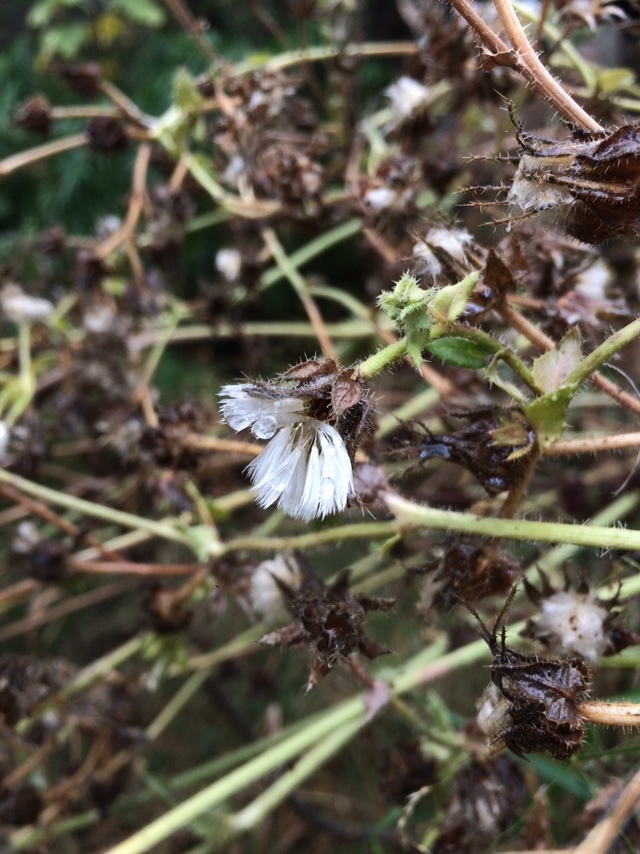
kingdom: Plantae
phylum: Tracheophyta
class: Magnoliopsida
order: Asterales
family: Asteraceae
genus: Helminthotheca
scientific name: Helminthotheca echioides
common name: Ox-tongue
